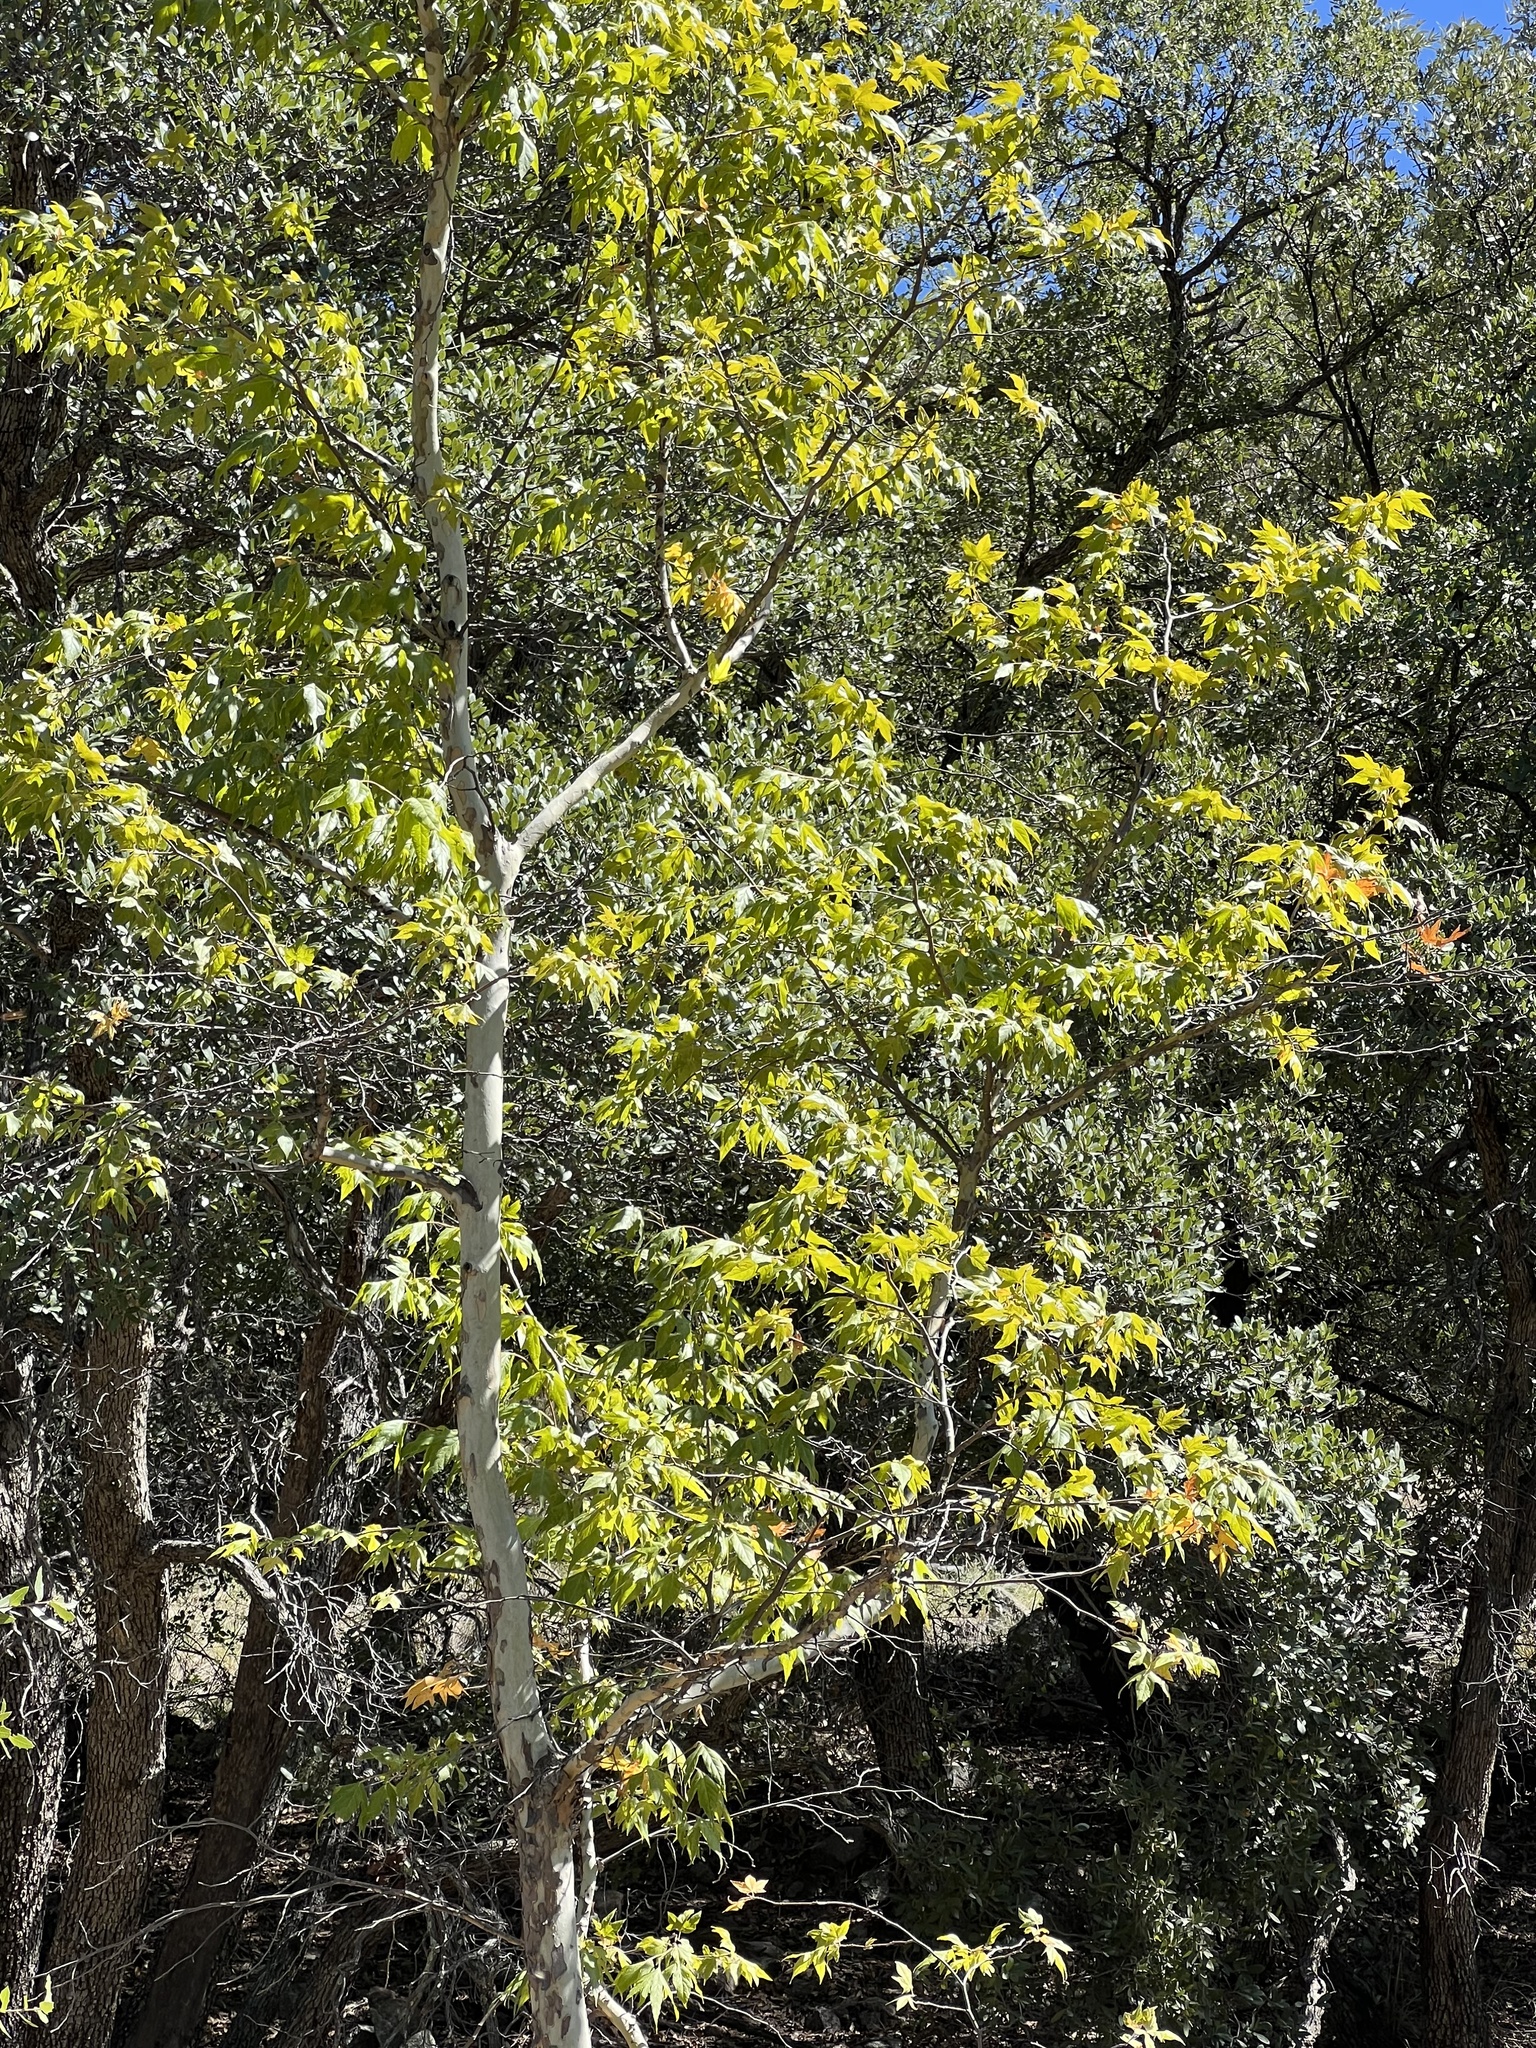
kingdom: Plantae
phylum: Tracheophyta
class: Magnoliopsida
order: Proteales
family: Platanaceae
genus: Platanus
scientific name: Platanus wrightii
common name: Arizona sycamore
